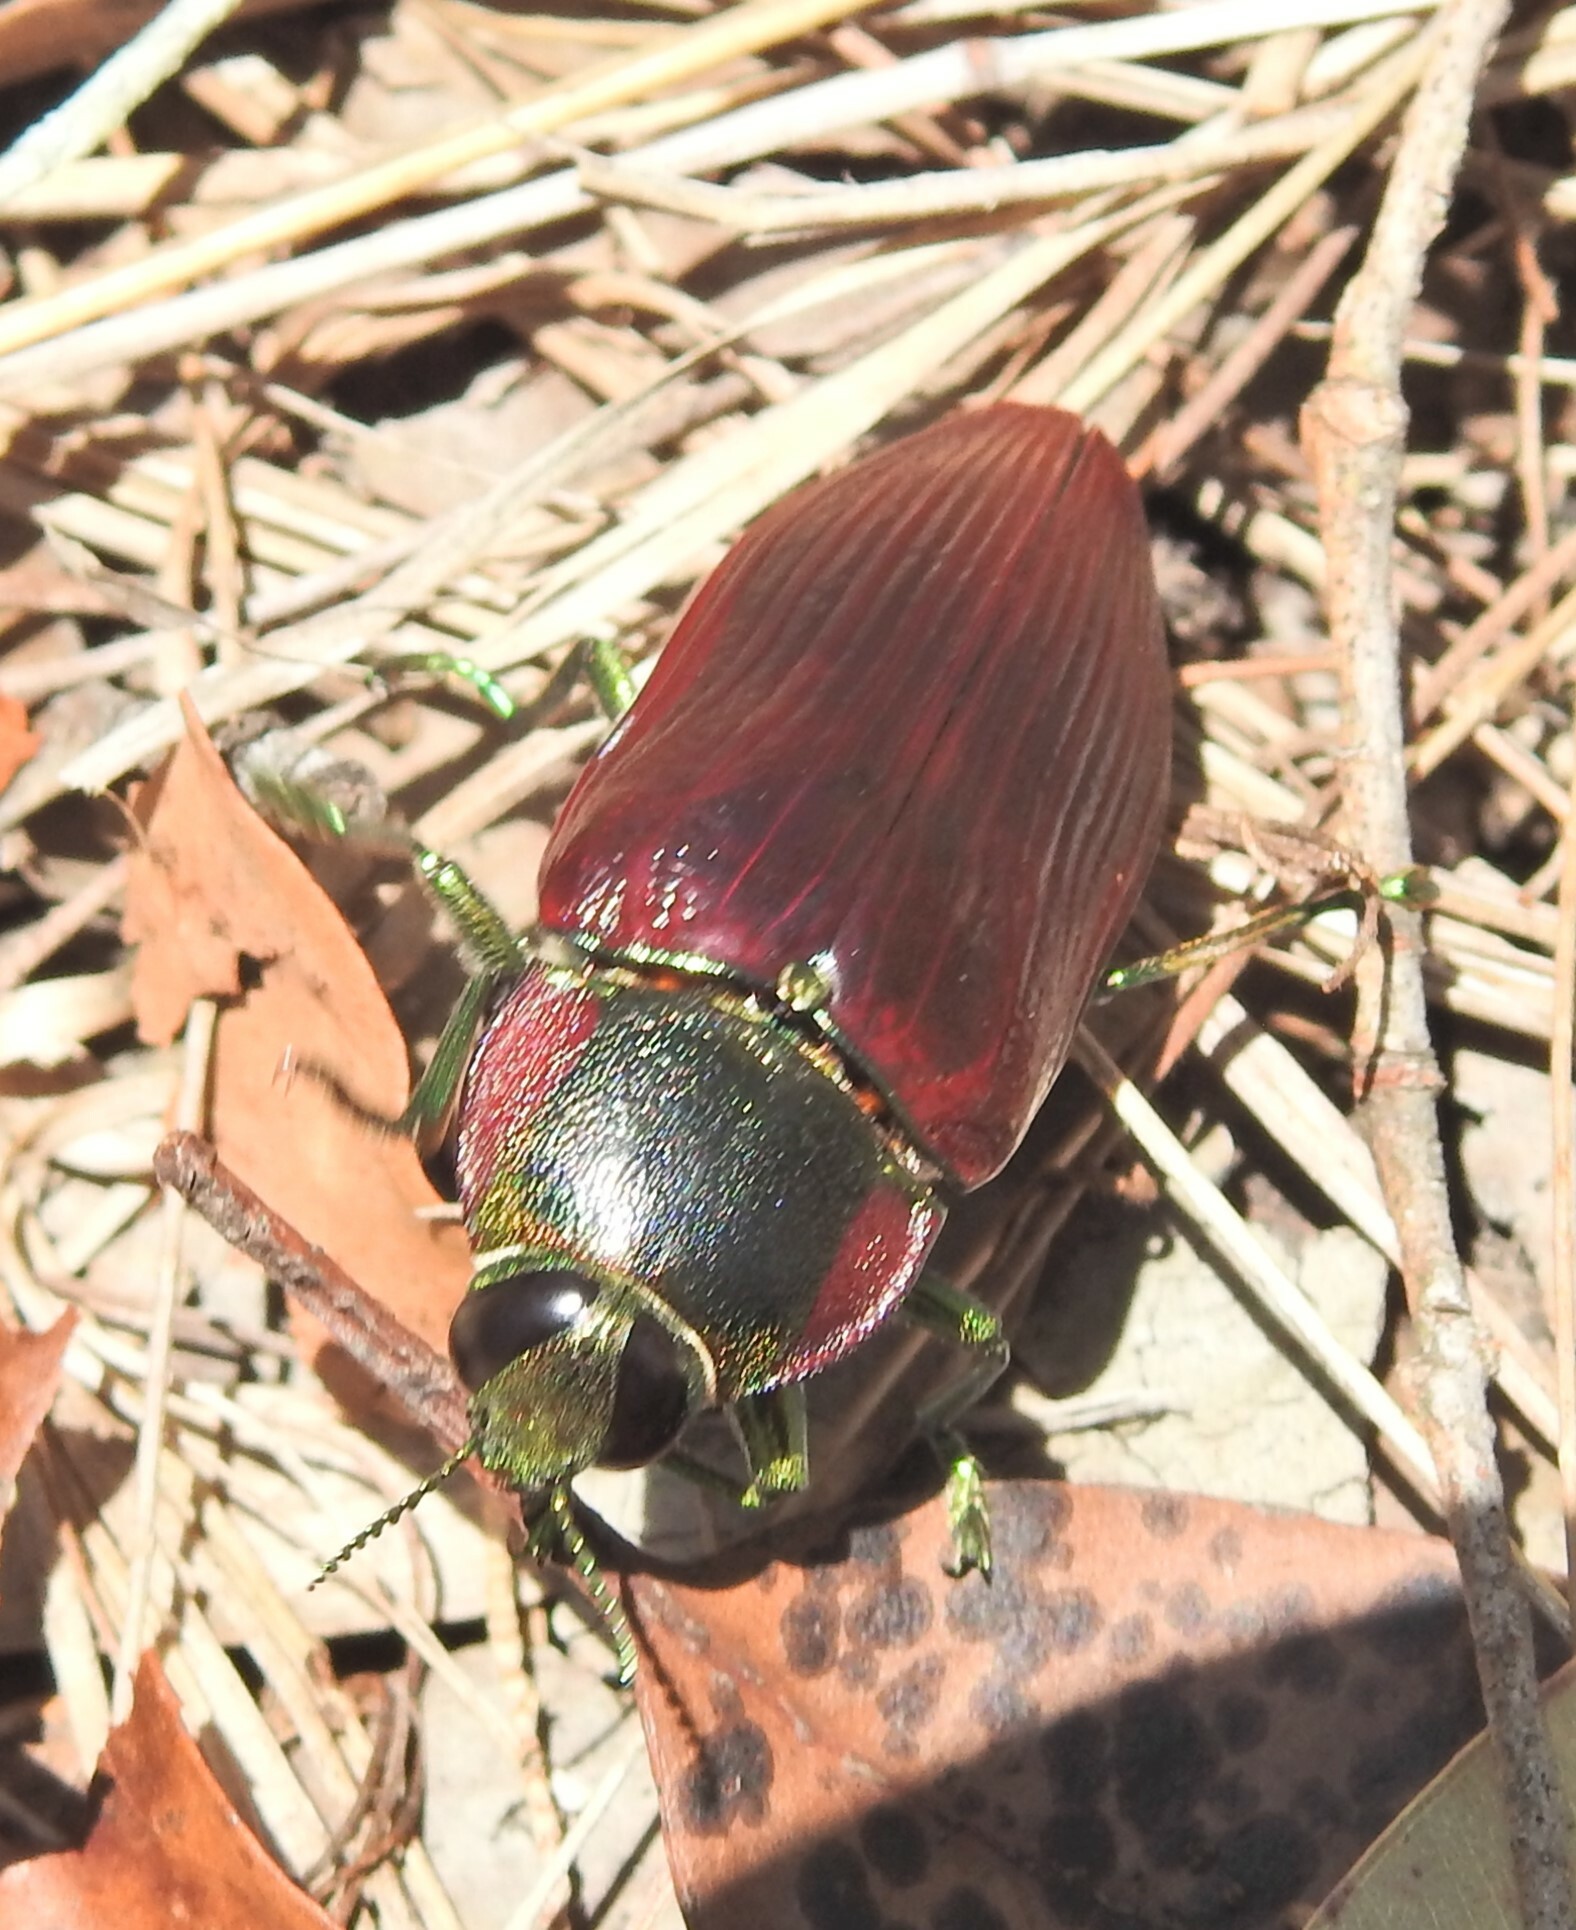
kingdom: Animalia
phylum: Arthropoda
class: Insecta
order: Coleoptera
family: Buprestidae
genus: Temognatha
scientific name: Temognatha variabilis
